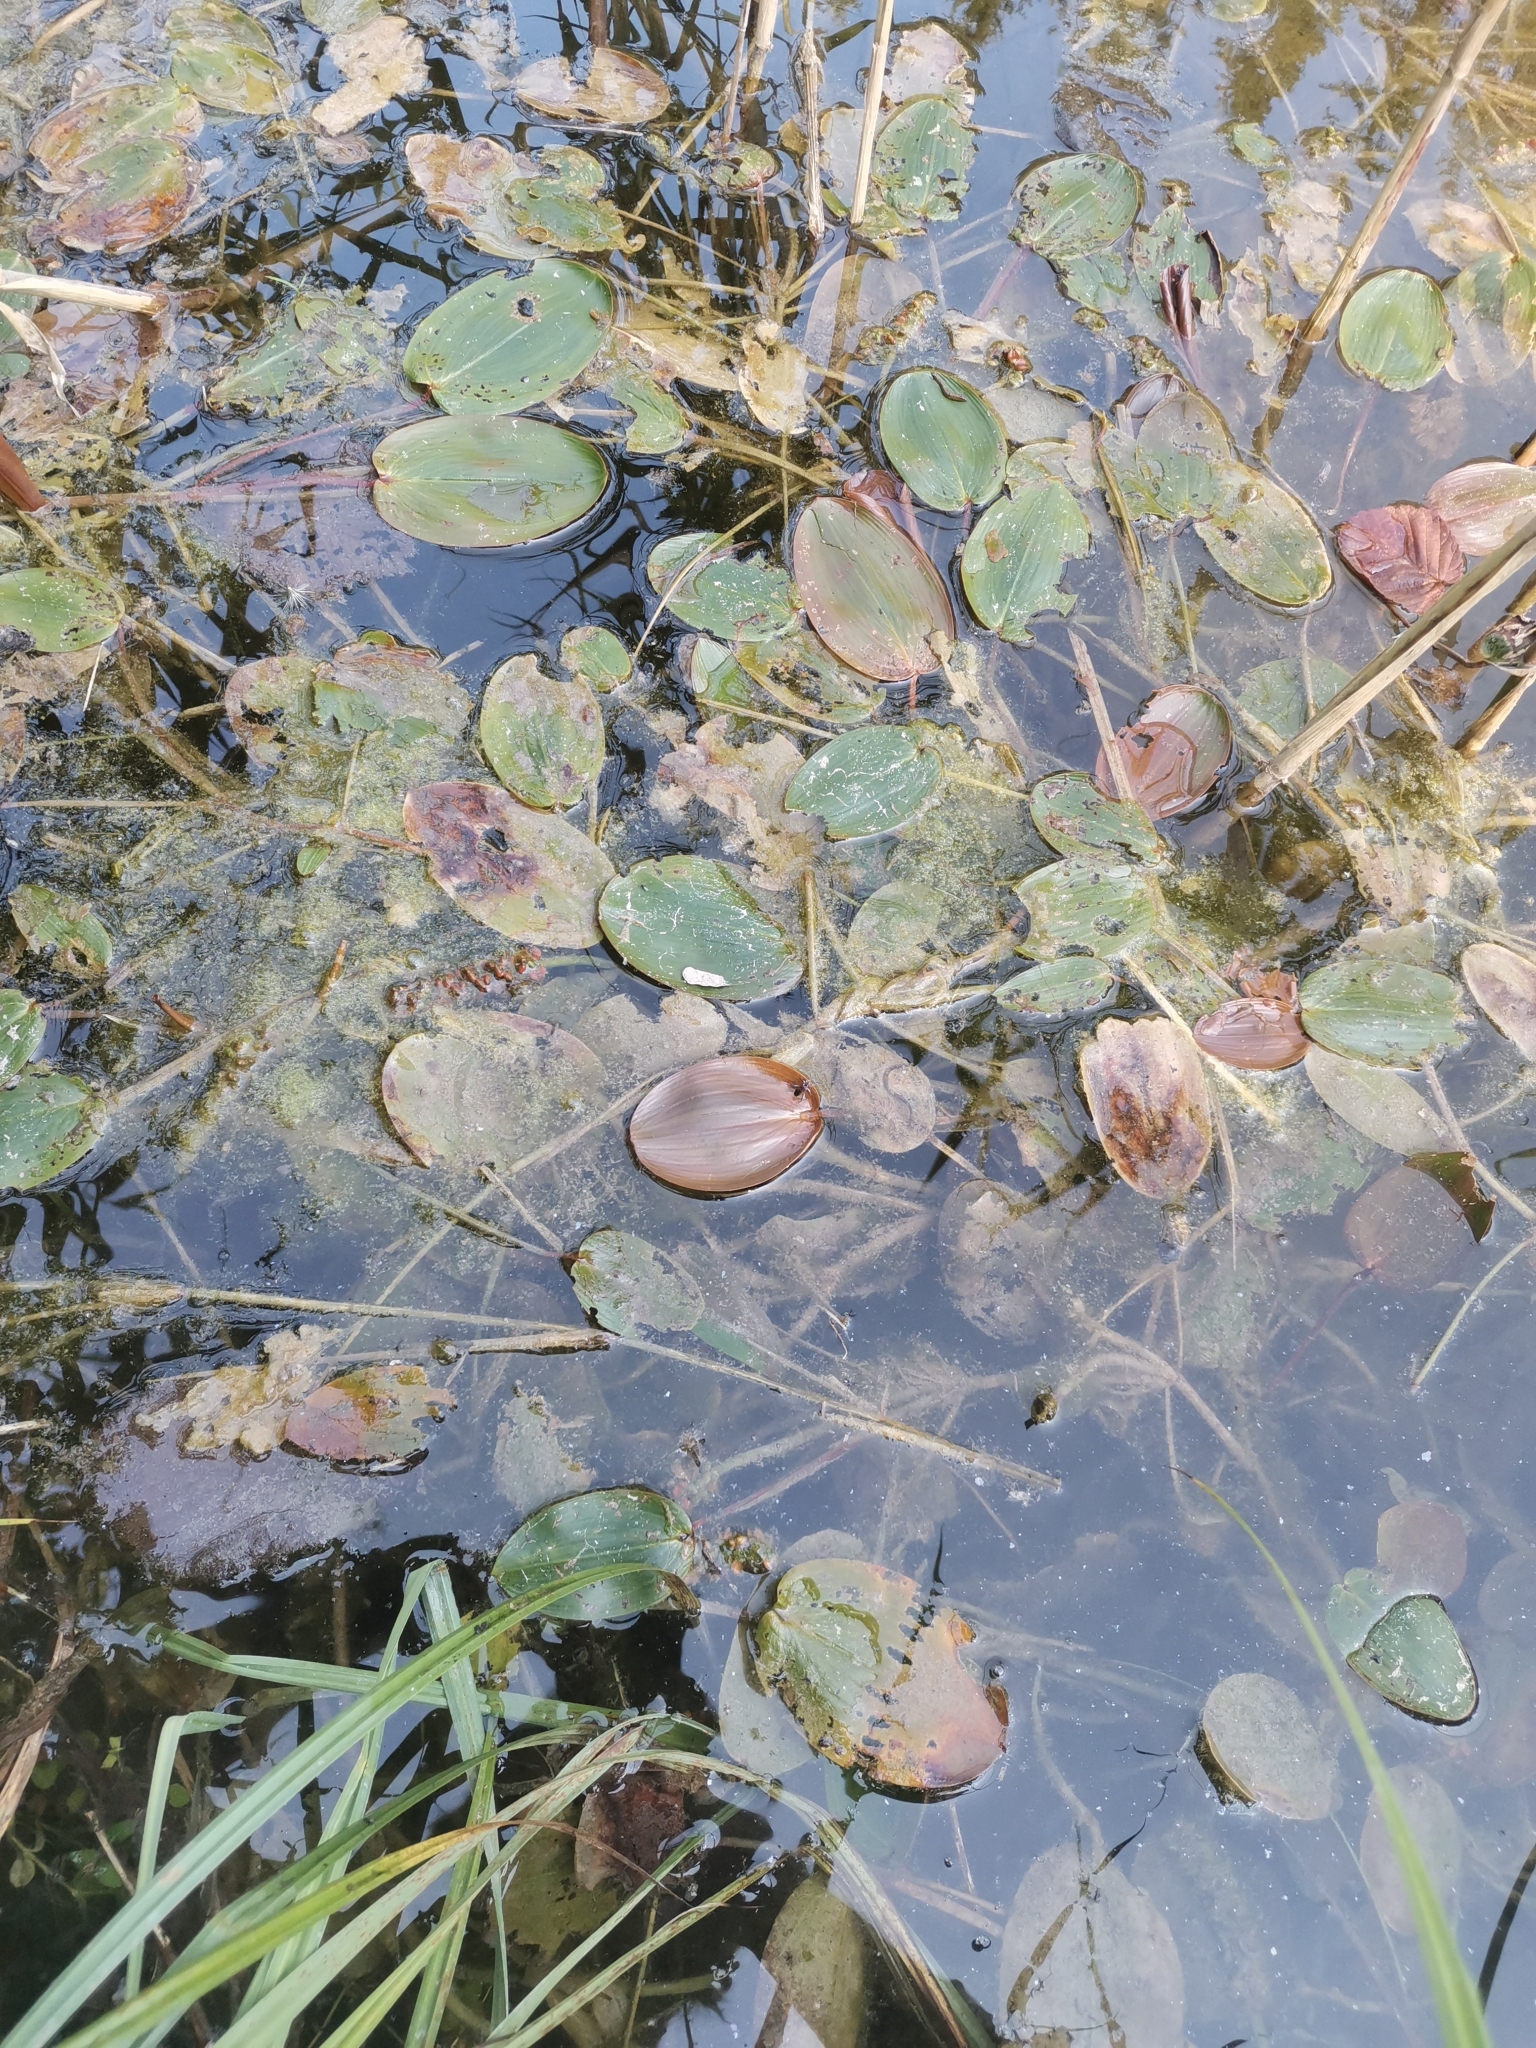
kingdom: Plantae
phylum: Tracheophyta
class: Liliopsida
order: Alismatales
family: Potamogetonaceae
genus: Potamogeton
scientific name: Potamogeton natans
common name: Broad-leaved pondweed
